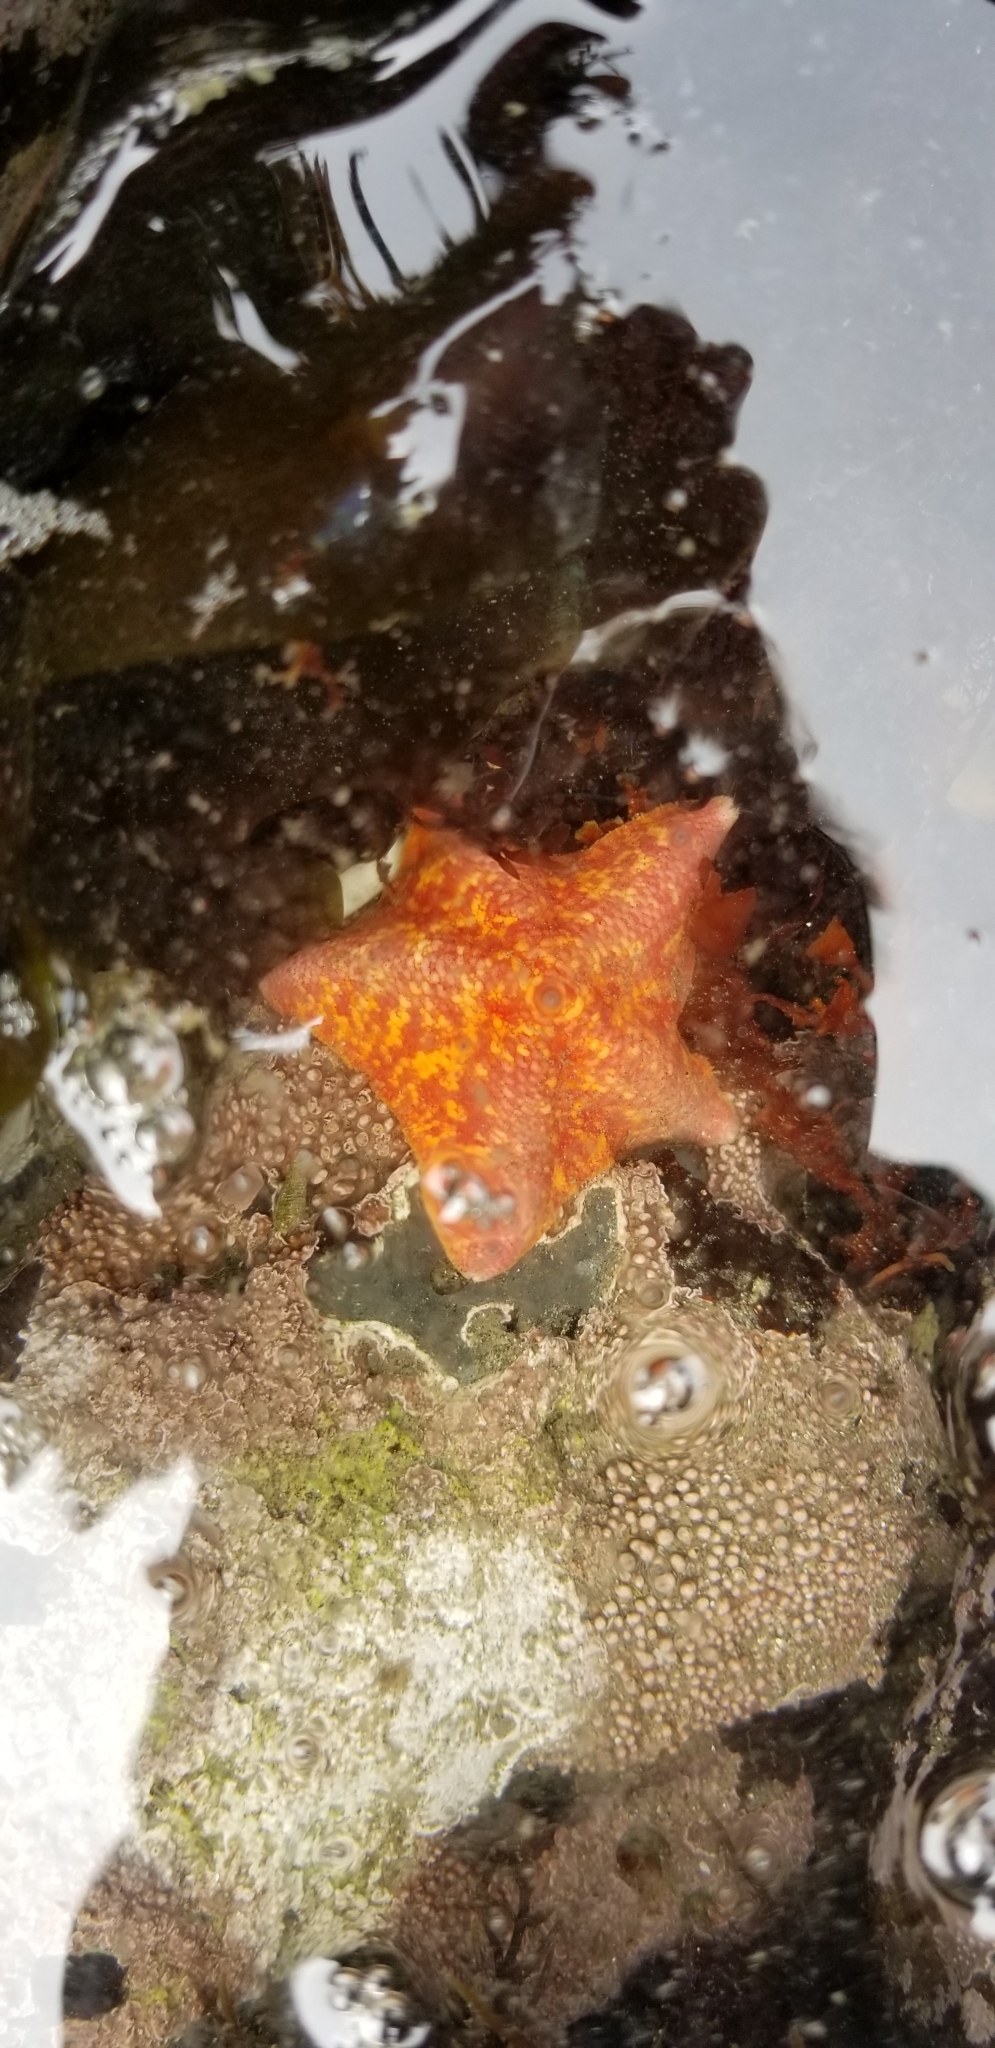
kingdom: Animalia
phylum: Echinodermata
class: Asteroidea
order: Valvatida
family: Asterinidae
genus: Patiria
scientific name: Patiria miniata
